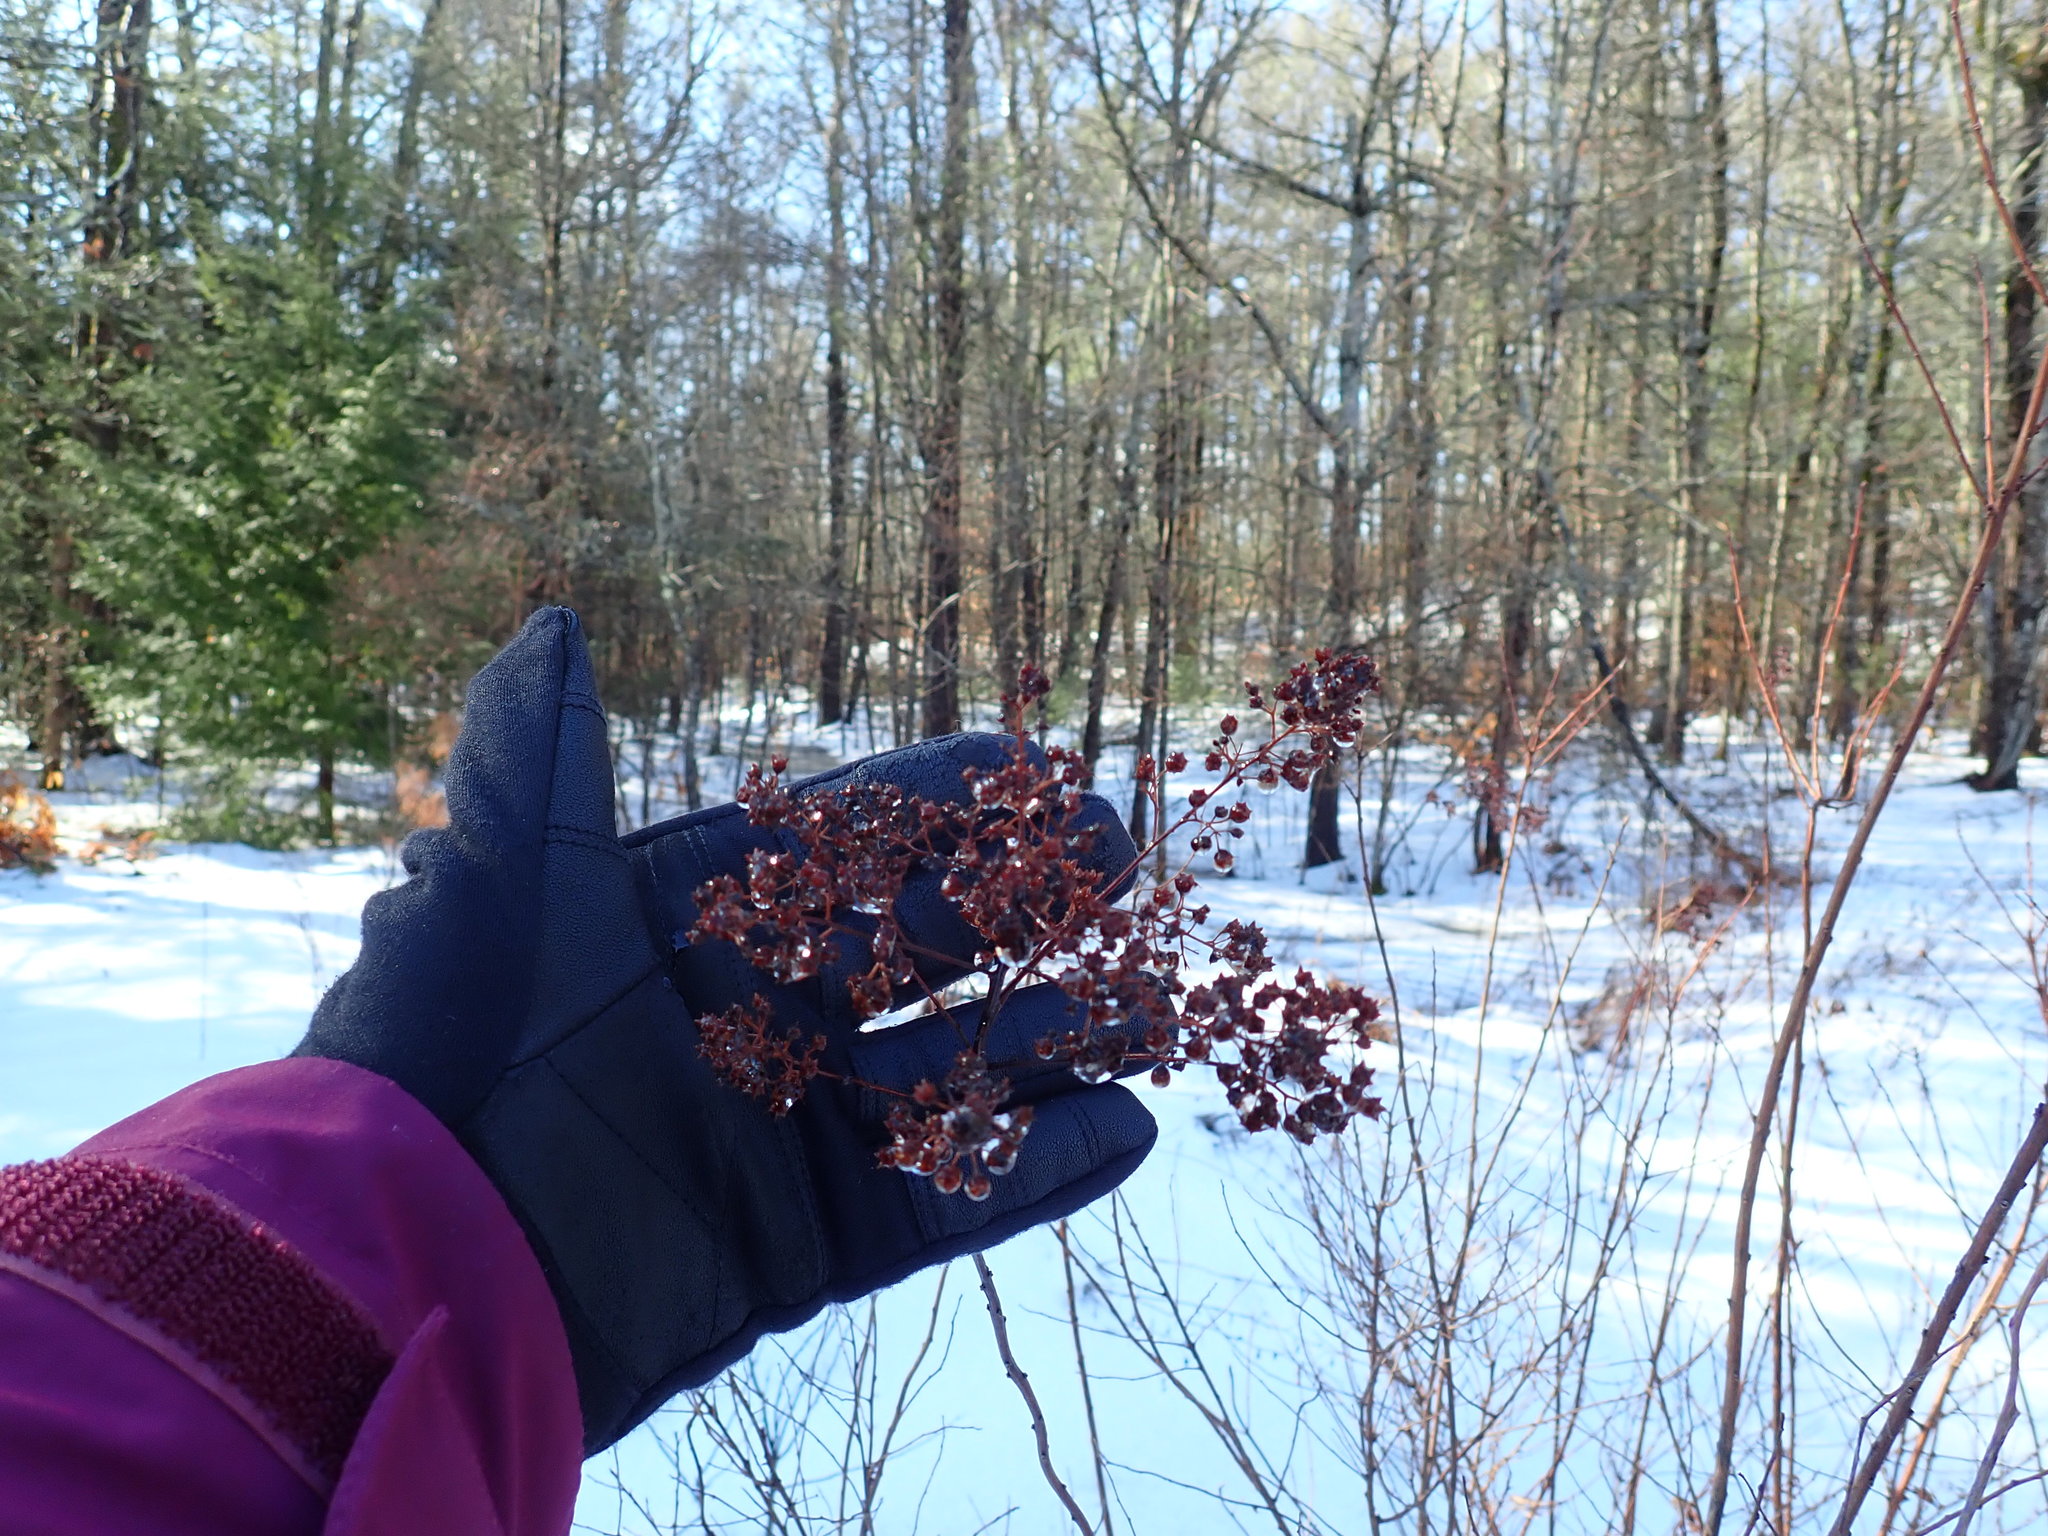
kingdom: Plantae
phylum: Tracheophyta
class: Magnoliopsida
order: Rosales
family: Rosaceae
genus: Spiraea
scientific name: Spiraea alba
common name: Pale bridewort
